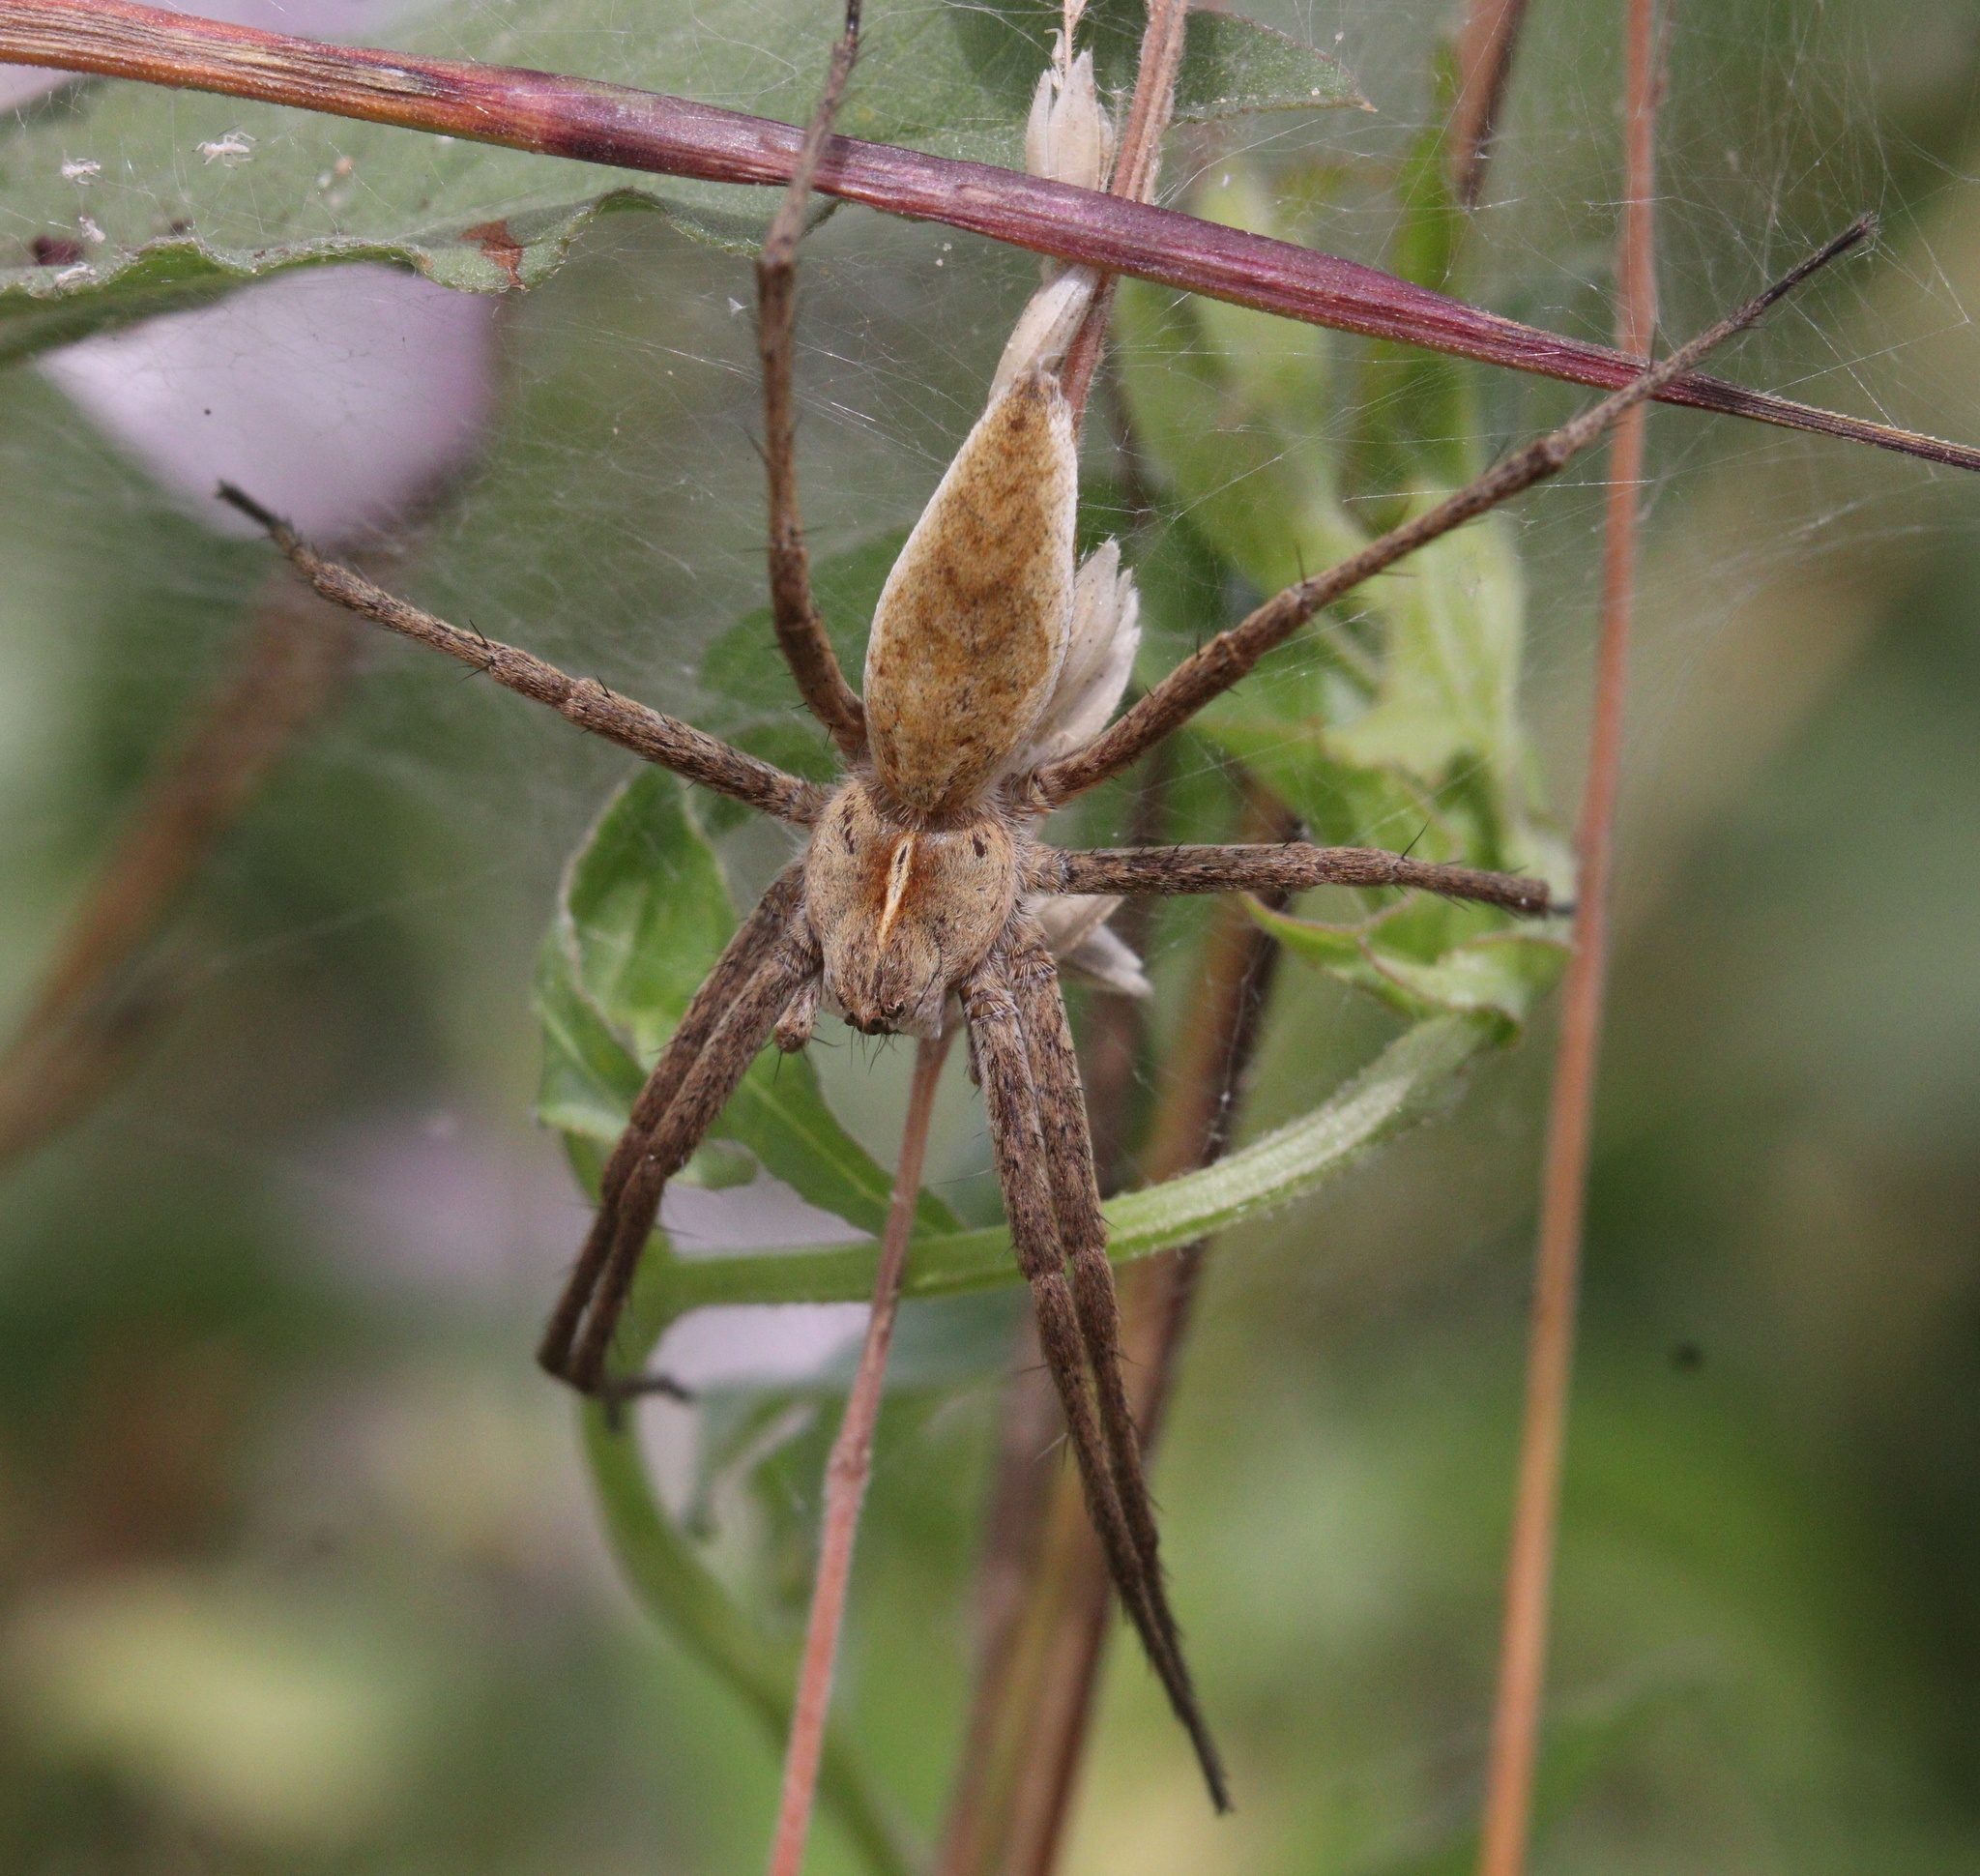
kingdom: Animalia
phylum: Arthropoda
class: Arachnida
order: Araneae
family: Pisauridae
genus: Pisaura
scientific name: Pisaura mirabilis
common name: Tent spider
